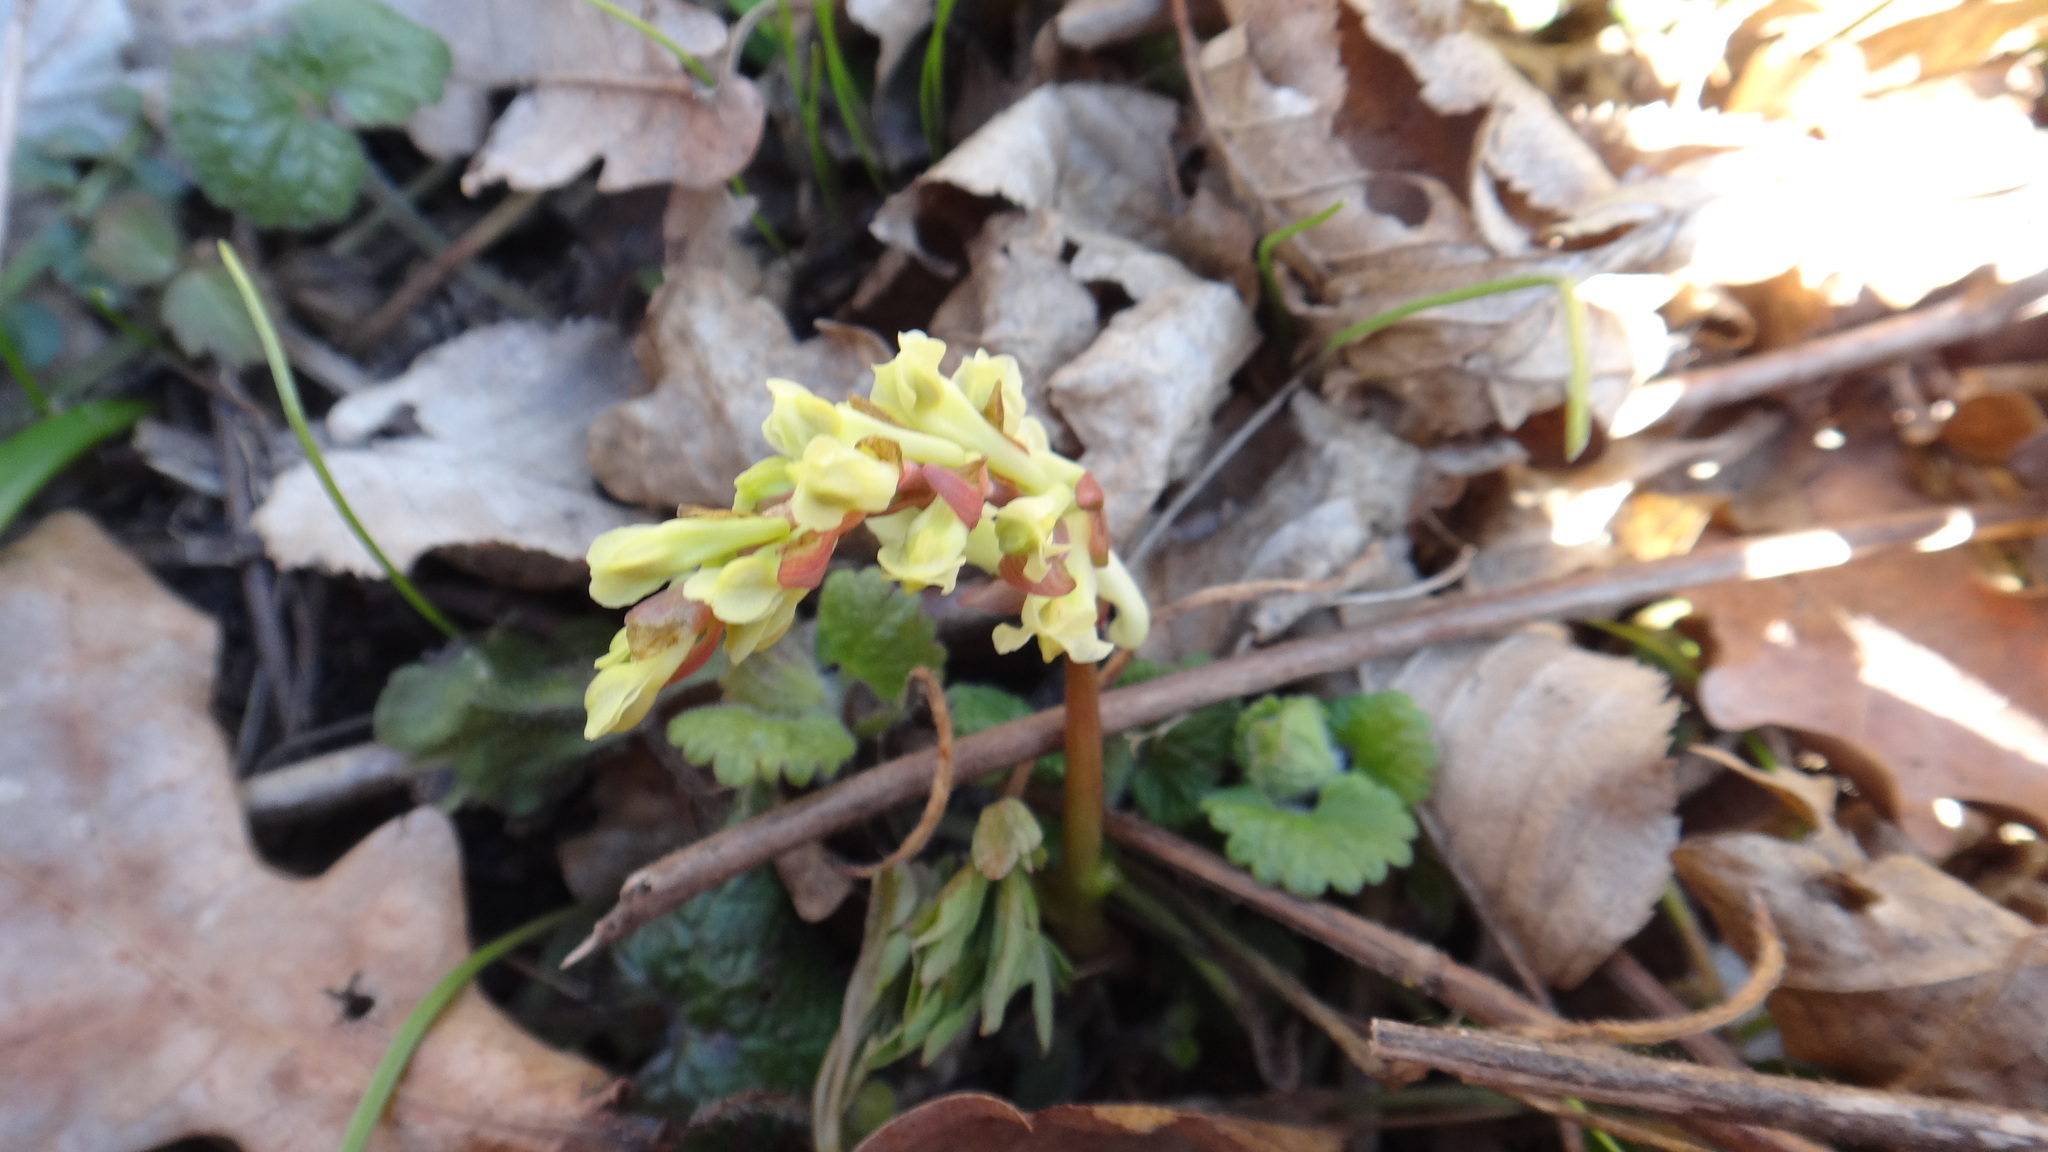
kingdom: Plantae
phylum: Tracheophyta
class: Magnoliopsida
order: Ranunculales
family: Papaveraceae
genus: Corydalis
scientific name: Corydalis cava
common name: Hollowroot
